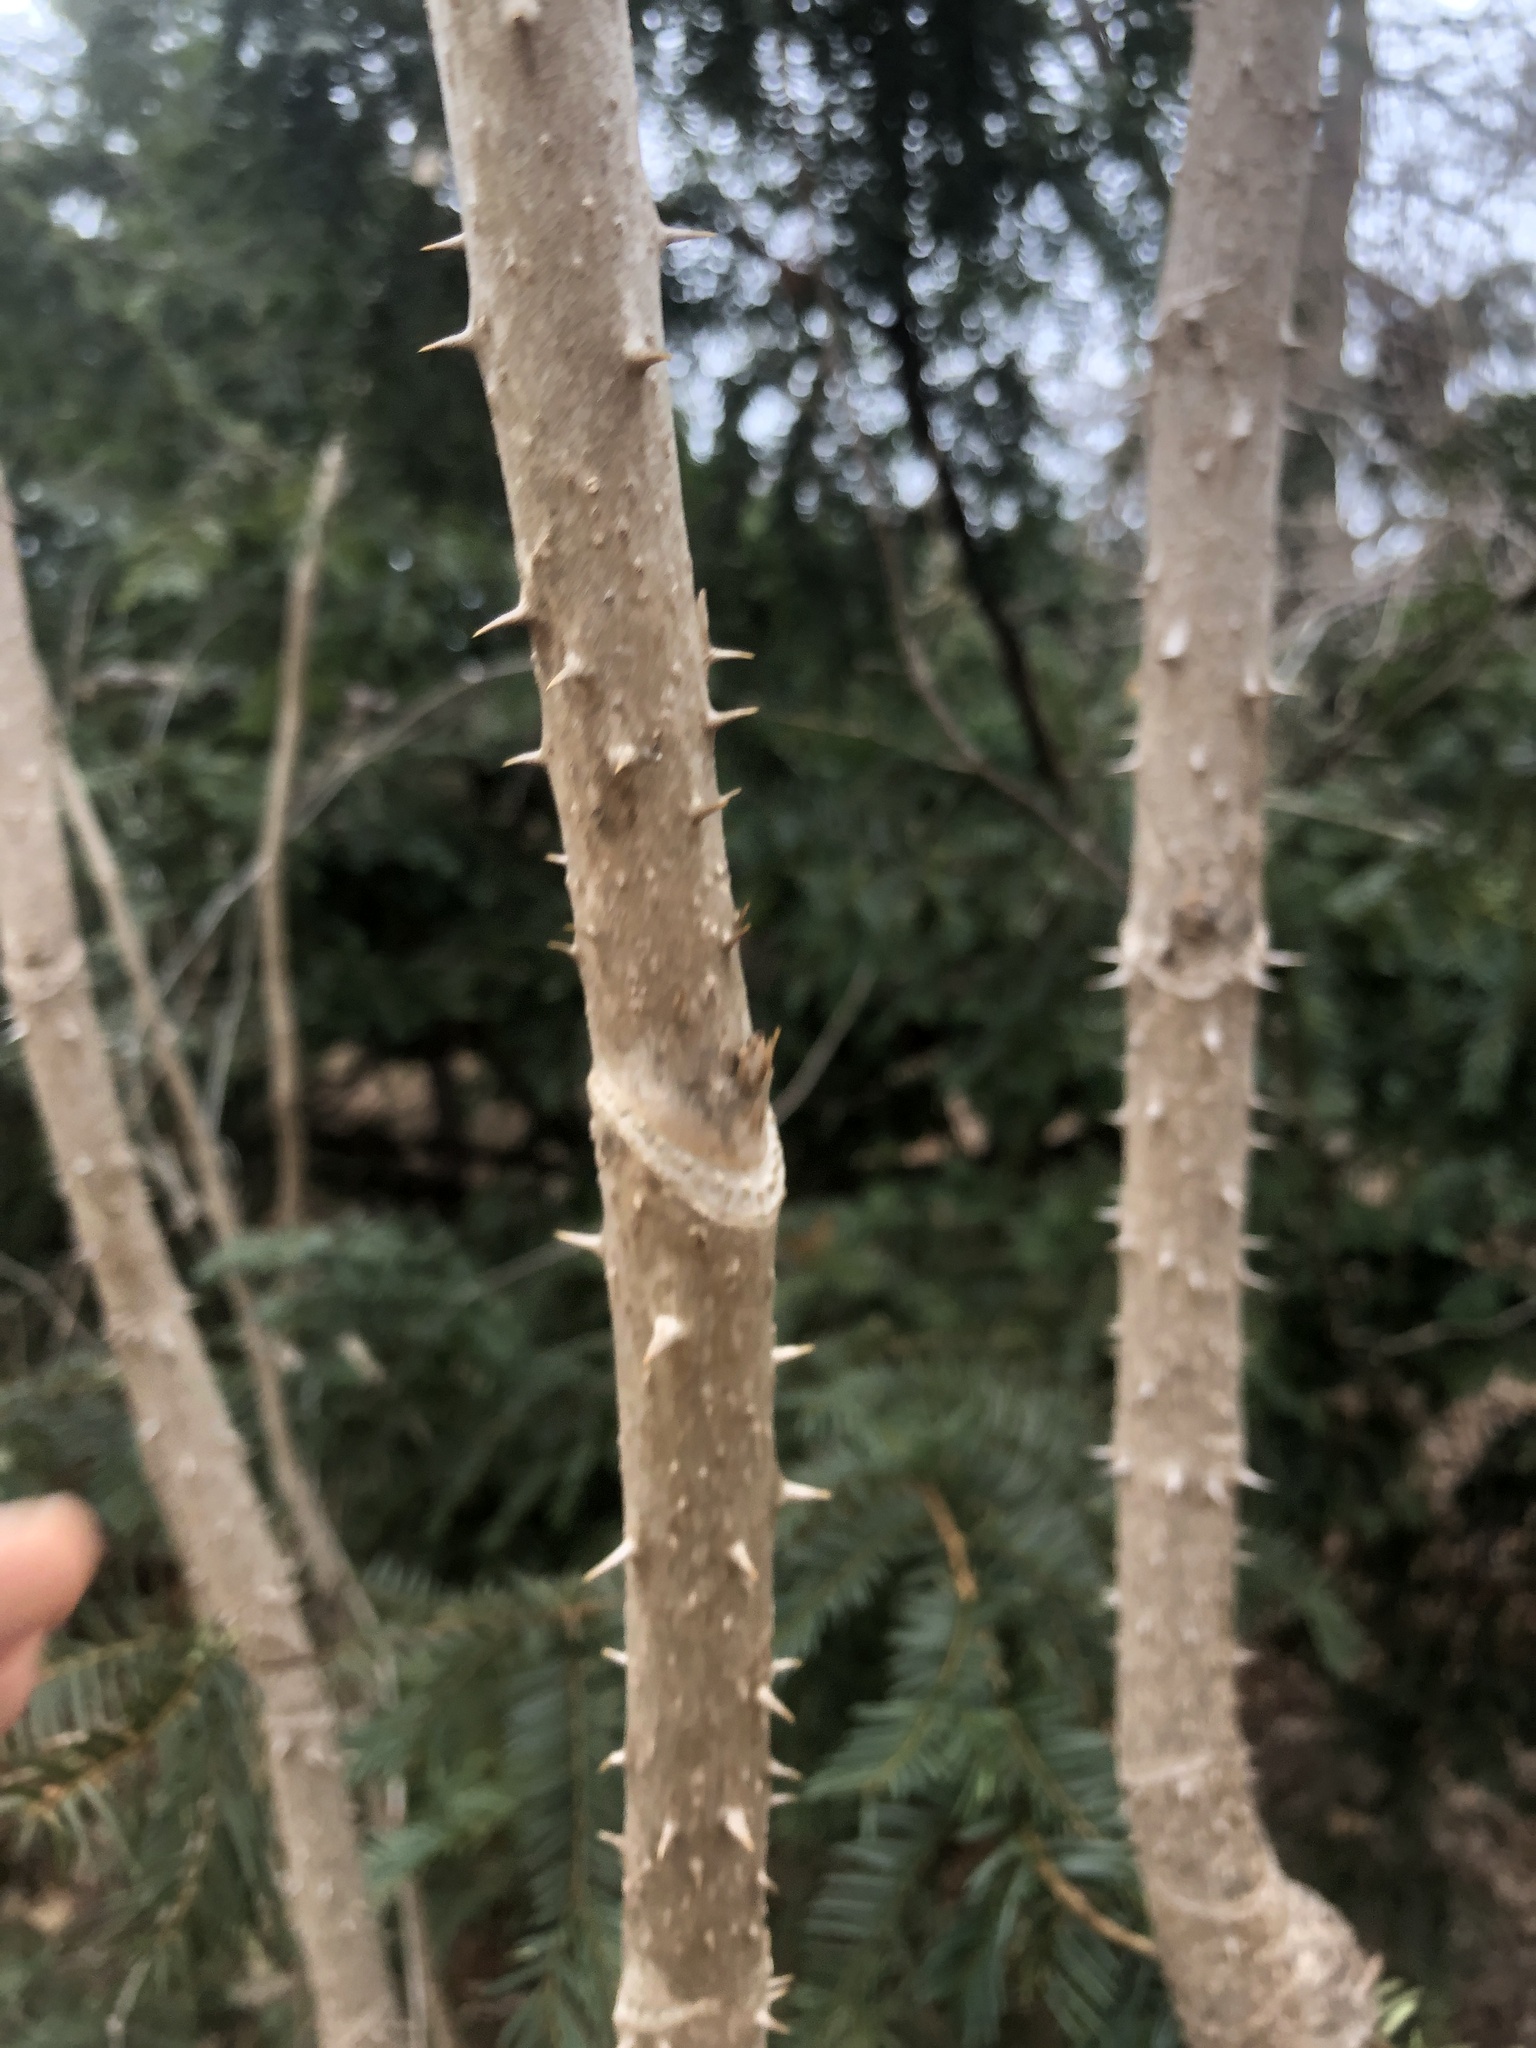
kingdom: Plantae
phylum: Tracheophyta
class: Magnoliopsida
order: Apiales
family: Araliaceae
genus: Aralia
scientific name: Aralia elata
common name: Japanese angelica-tree
